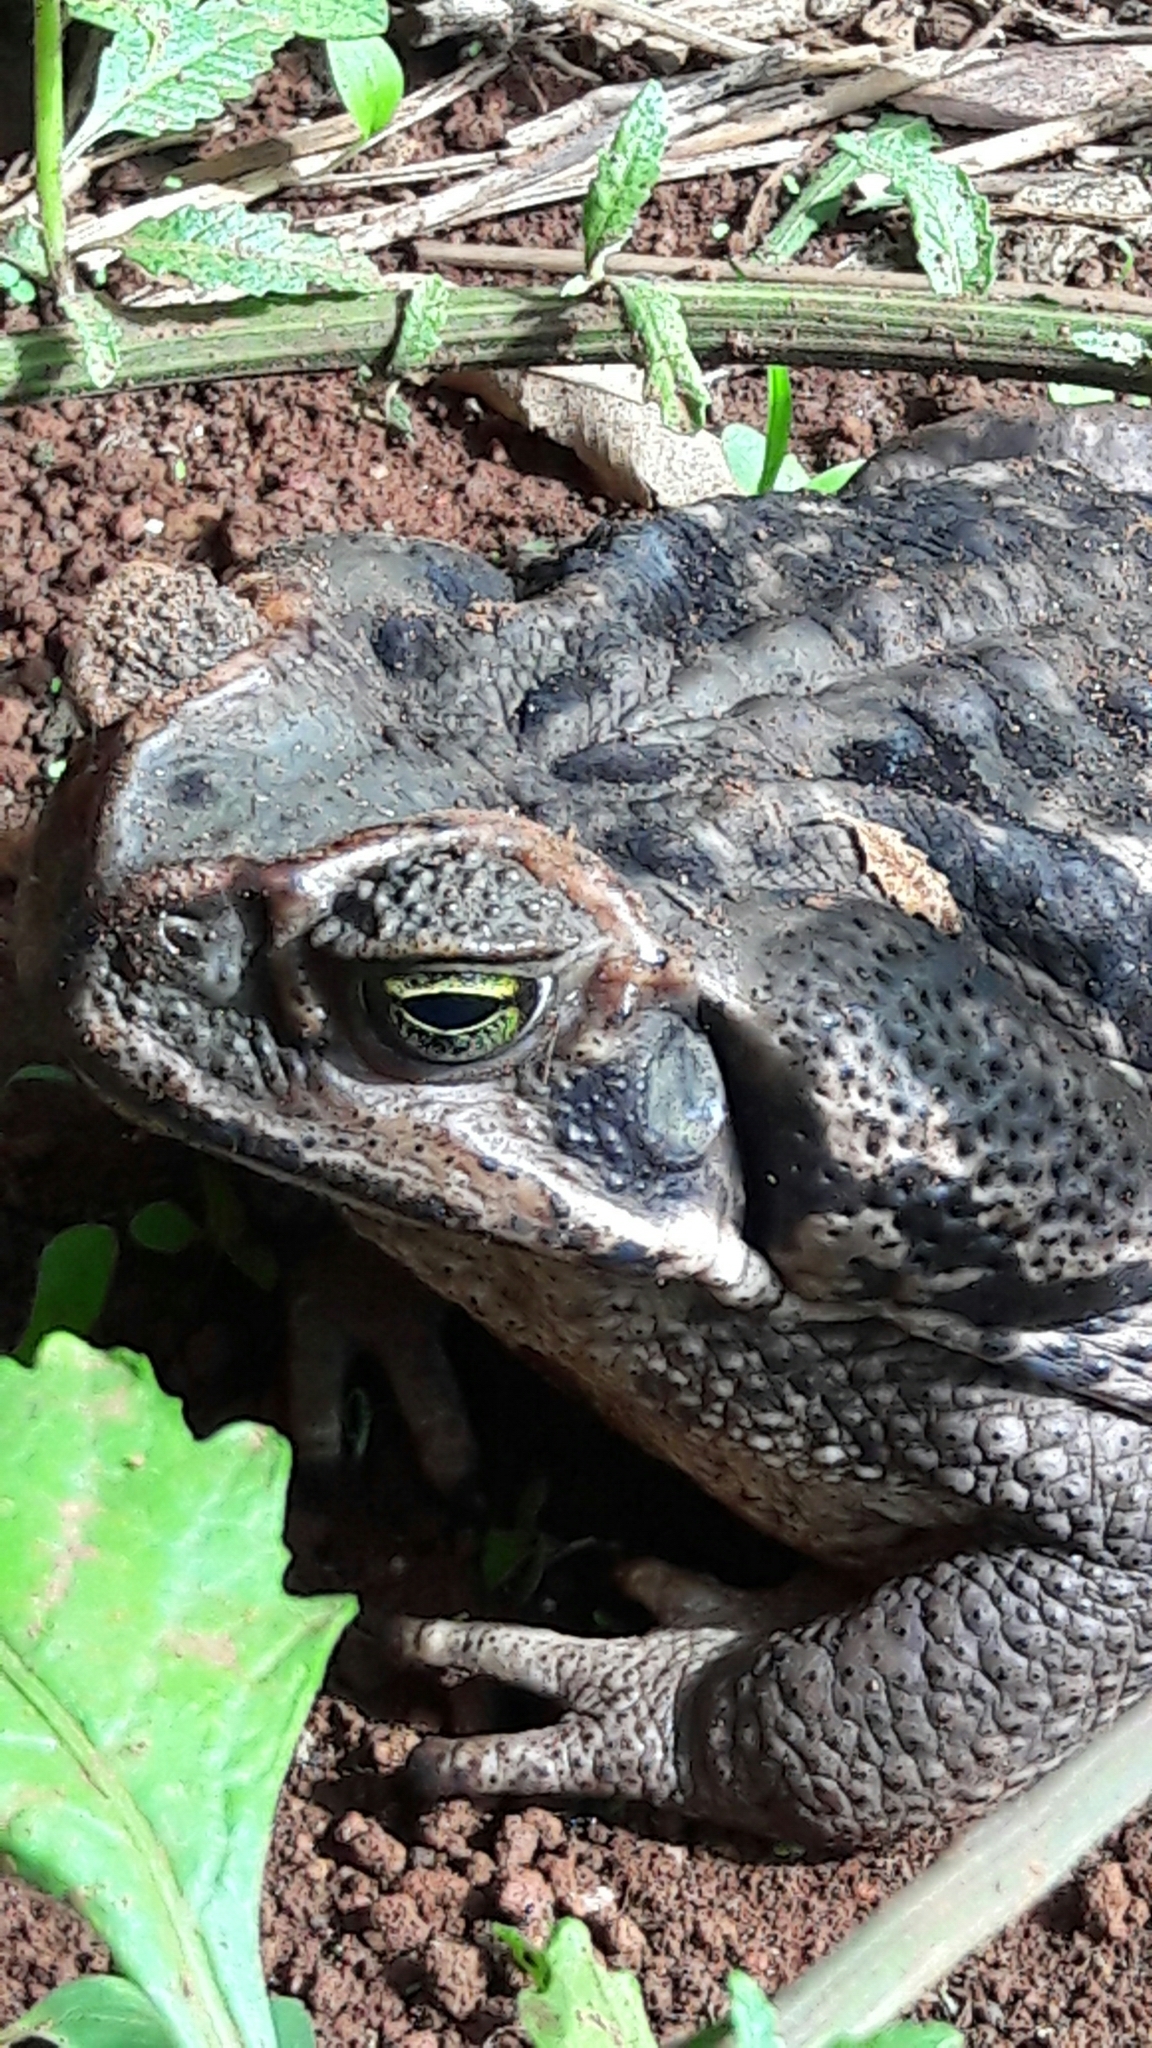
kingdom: Animalia
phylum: Chordata
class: Amphibia
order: Anura
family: Bufonidae
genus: Rhinella
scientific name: Rhinella diptycha
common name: Cope's toad
